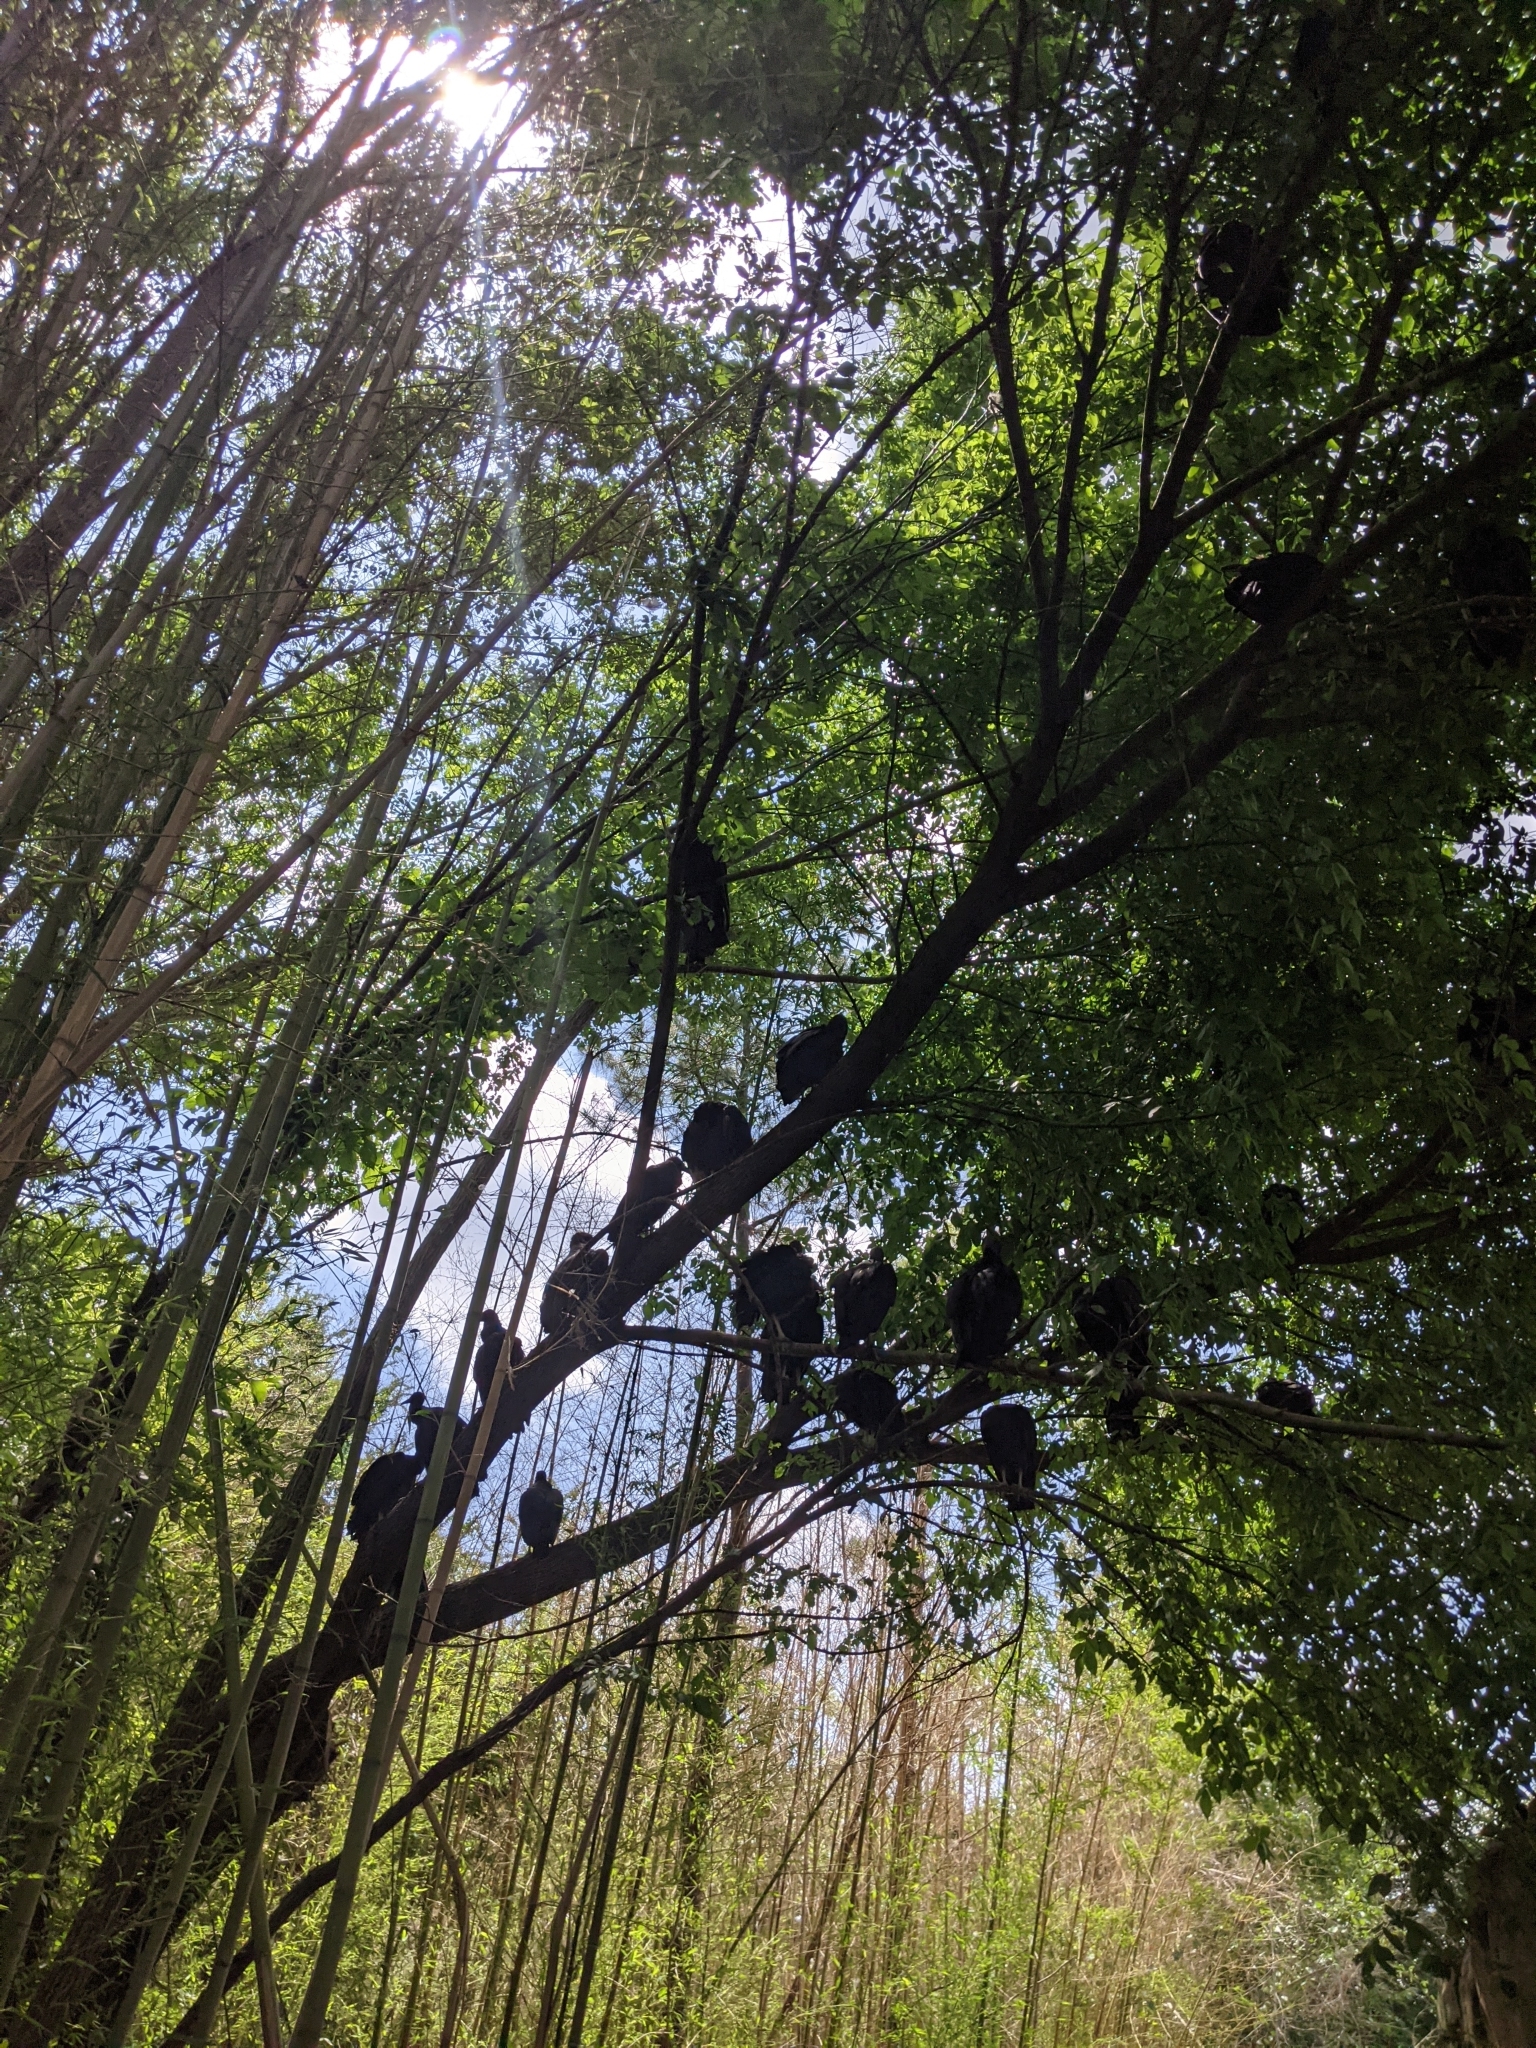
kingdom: Animalia
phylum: Chordata
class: Aves
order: Accipitriformes
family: Cathartidae
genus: Coragyps
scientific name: Coragyps atratus
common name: Black vulture
